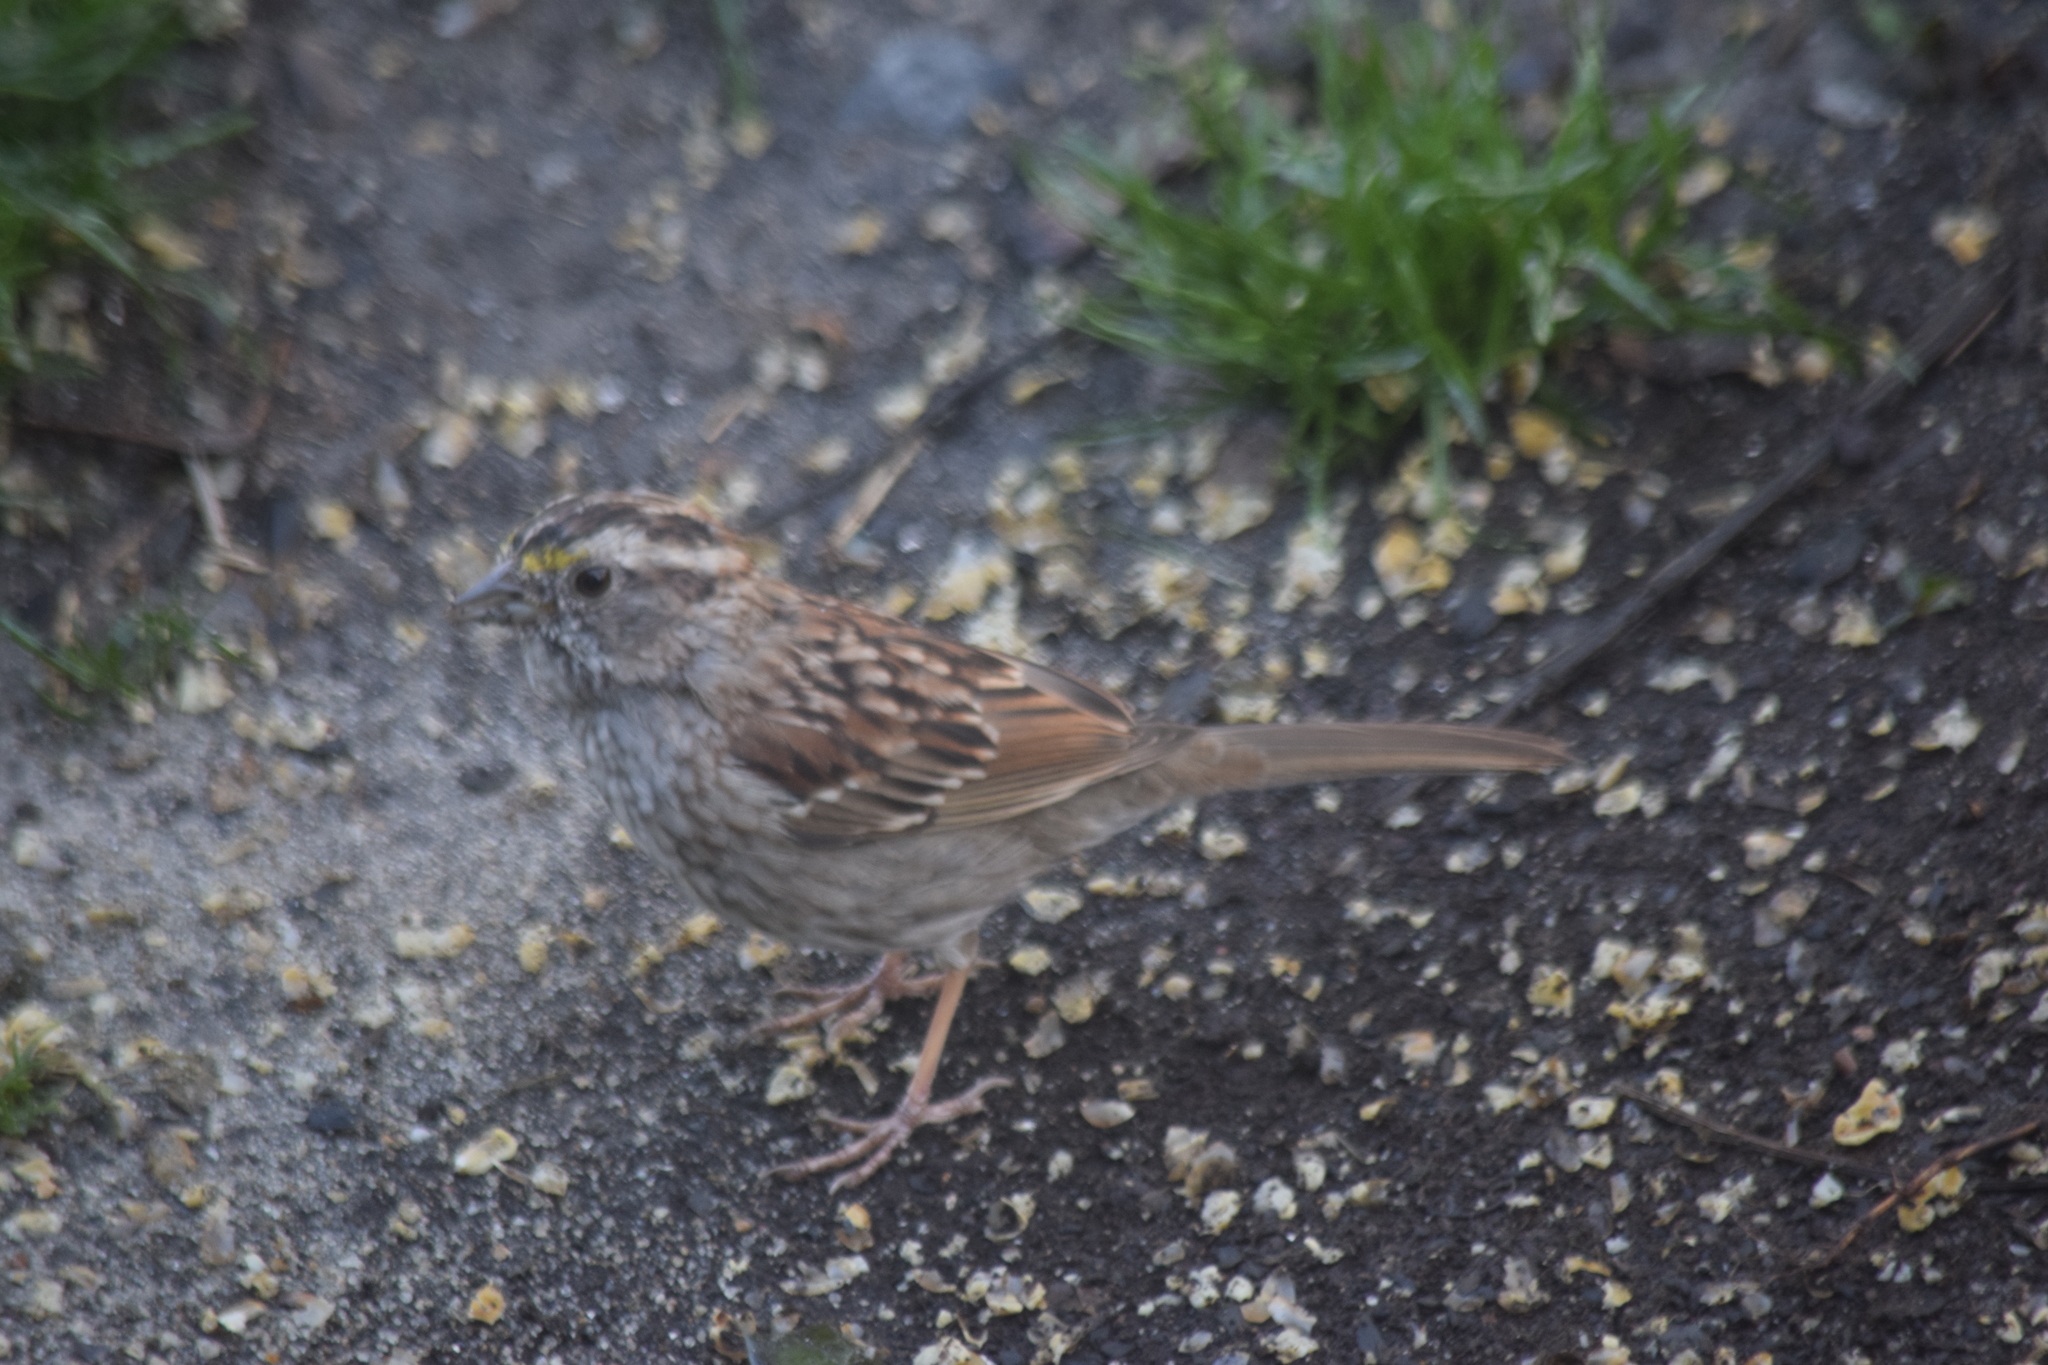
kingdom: Animalia
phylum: Chordata
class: Aves
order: Passeriformes
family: Passerellidae
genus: Zonotrichia
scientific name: Zonotrichia albicollis
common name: White-throated sparrow
